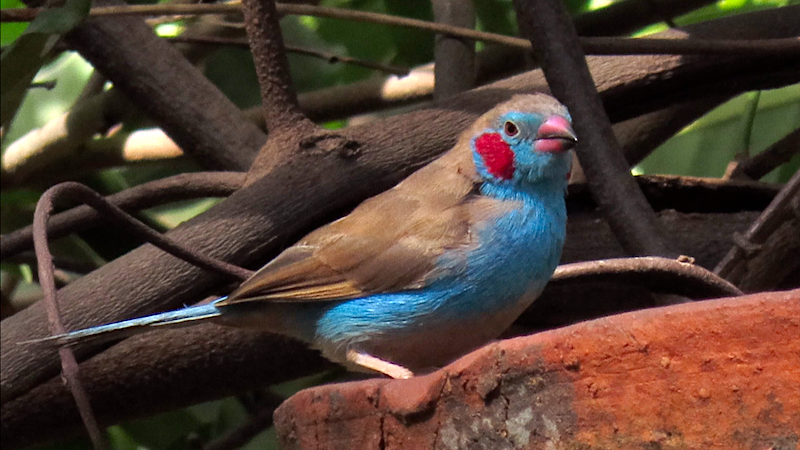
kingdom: Animalia
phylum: Chordata
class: Aves
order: Passeriformes
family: Estrildidae
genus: Uraeginthus
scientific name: Uraeginthus bengalus
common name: Red-cheeked cordon-bleu
